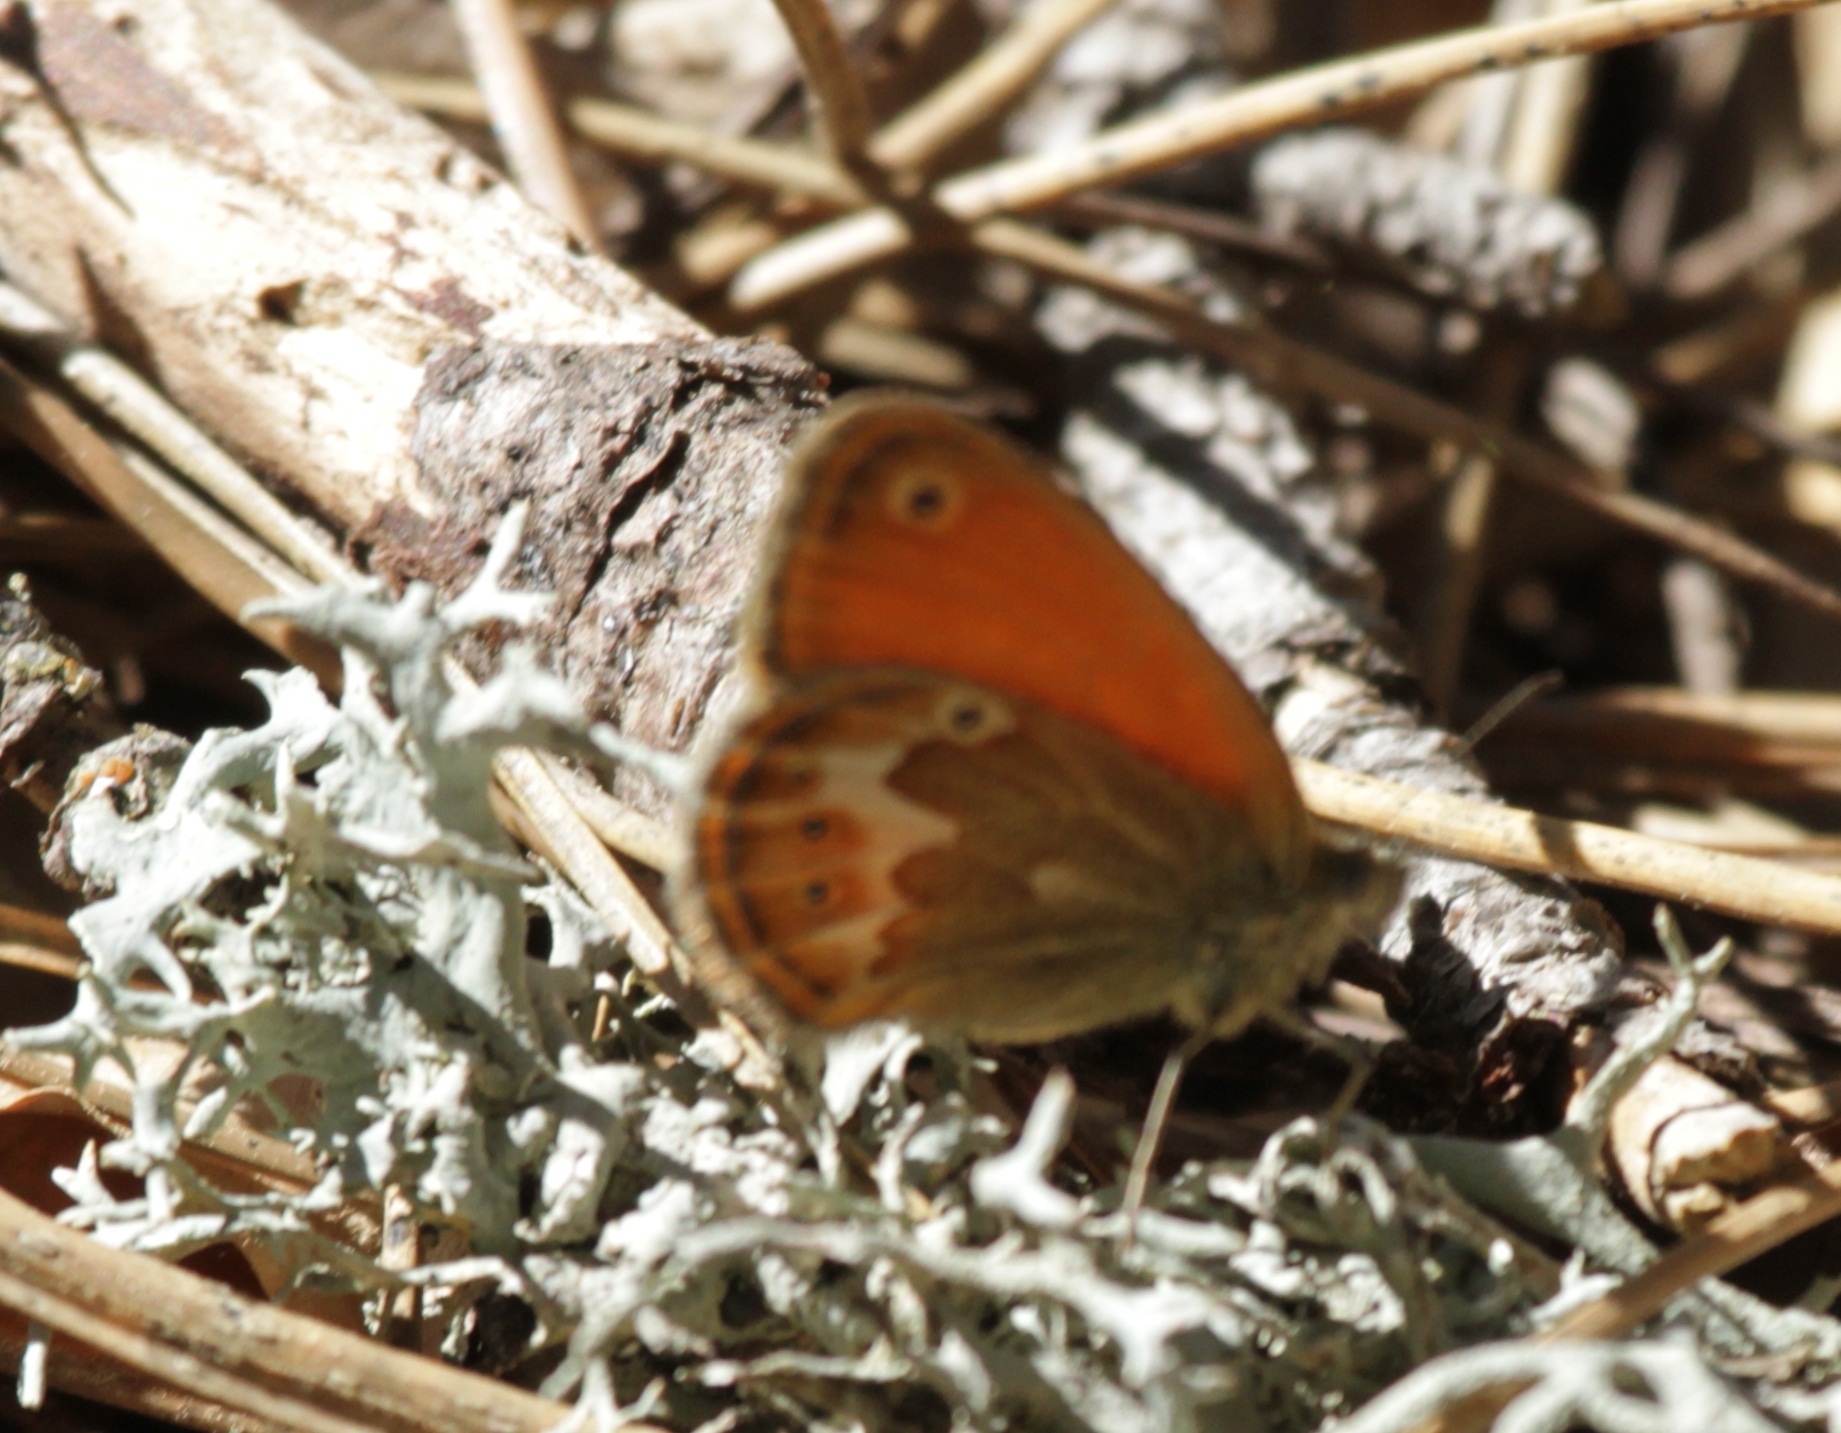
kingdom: Animalia
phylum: Arthropoda
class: Insecta
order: Lepidoptera
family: Nymphalidae
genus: Coenonympha
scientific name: Coenonympha corinna
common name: Corsican heath
